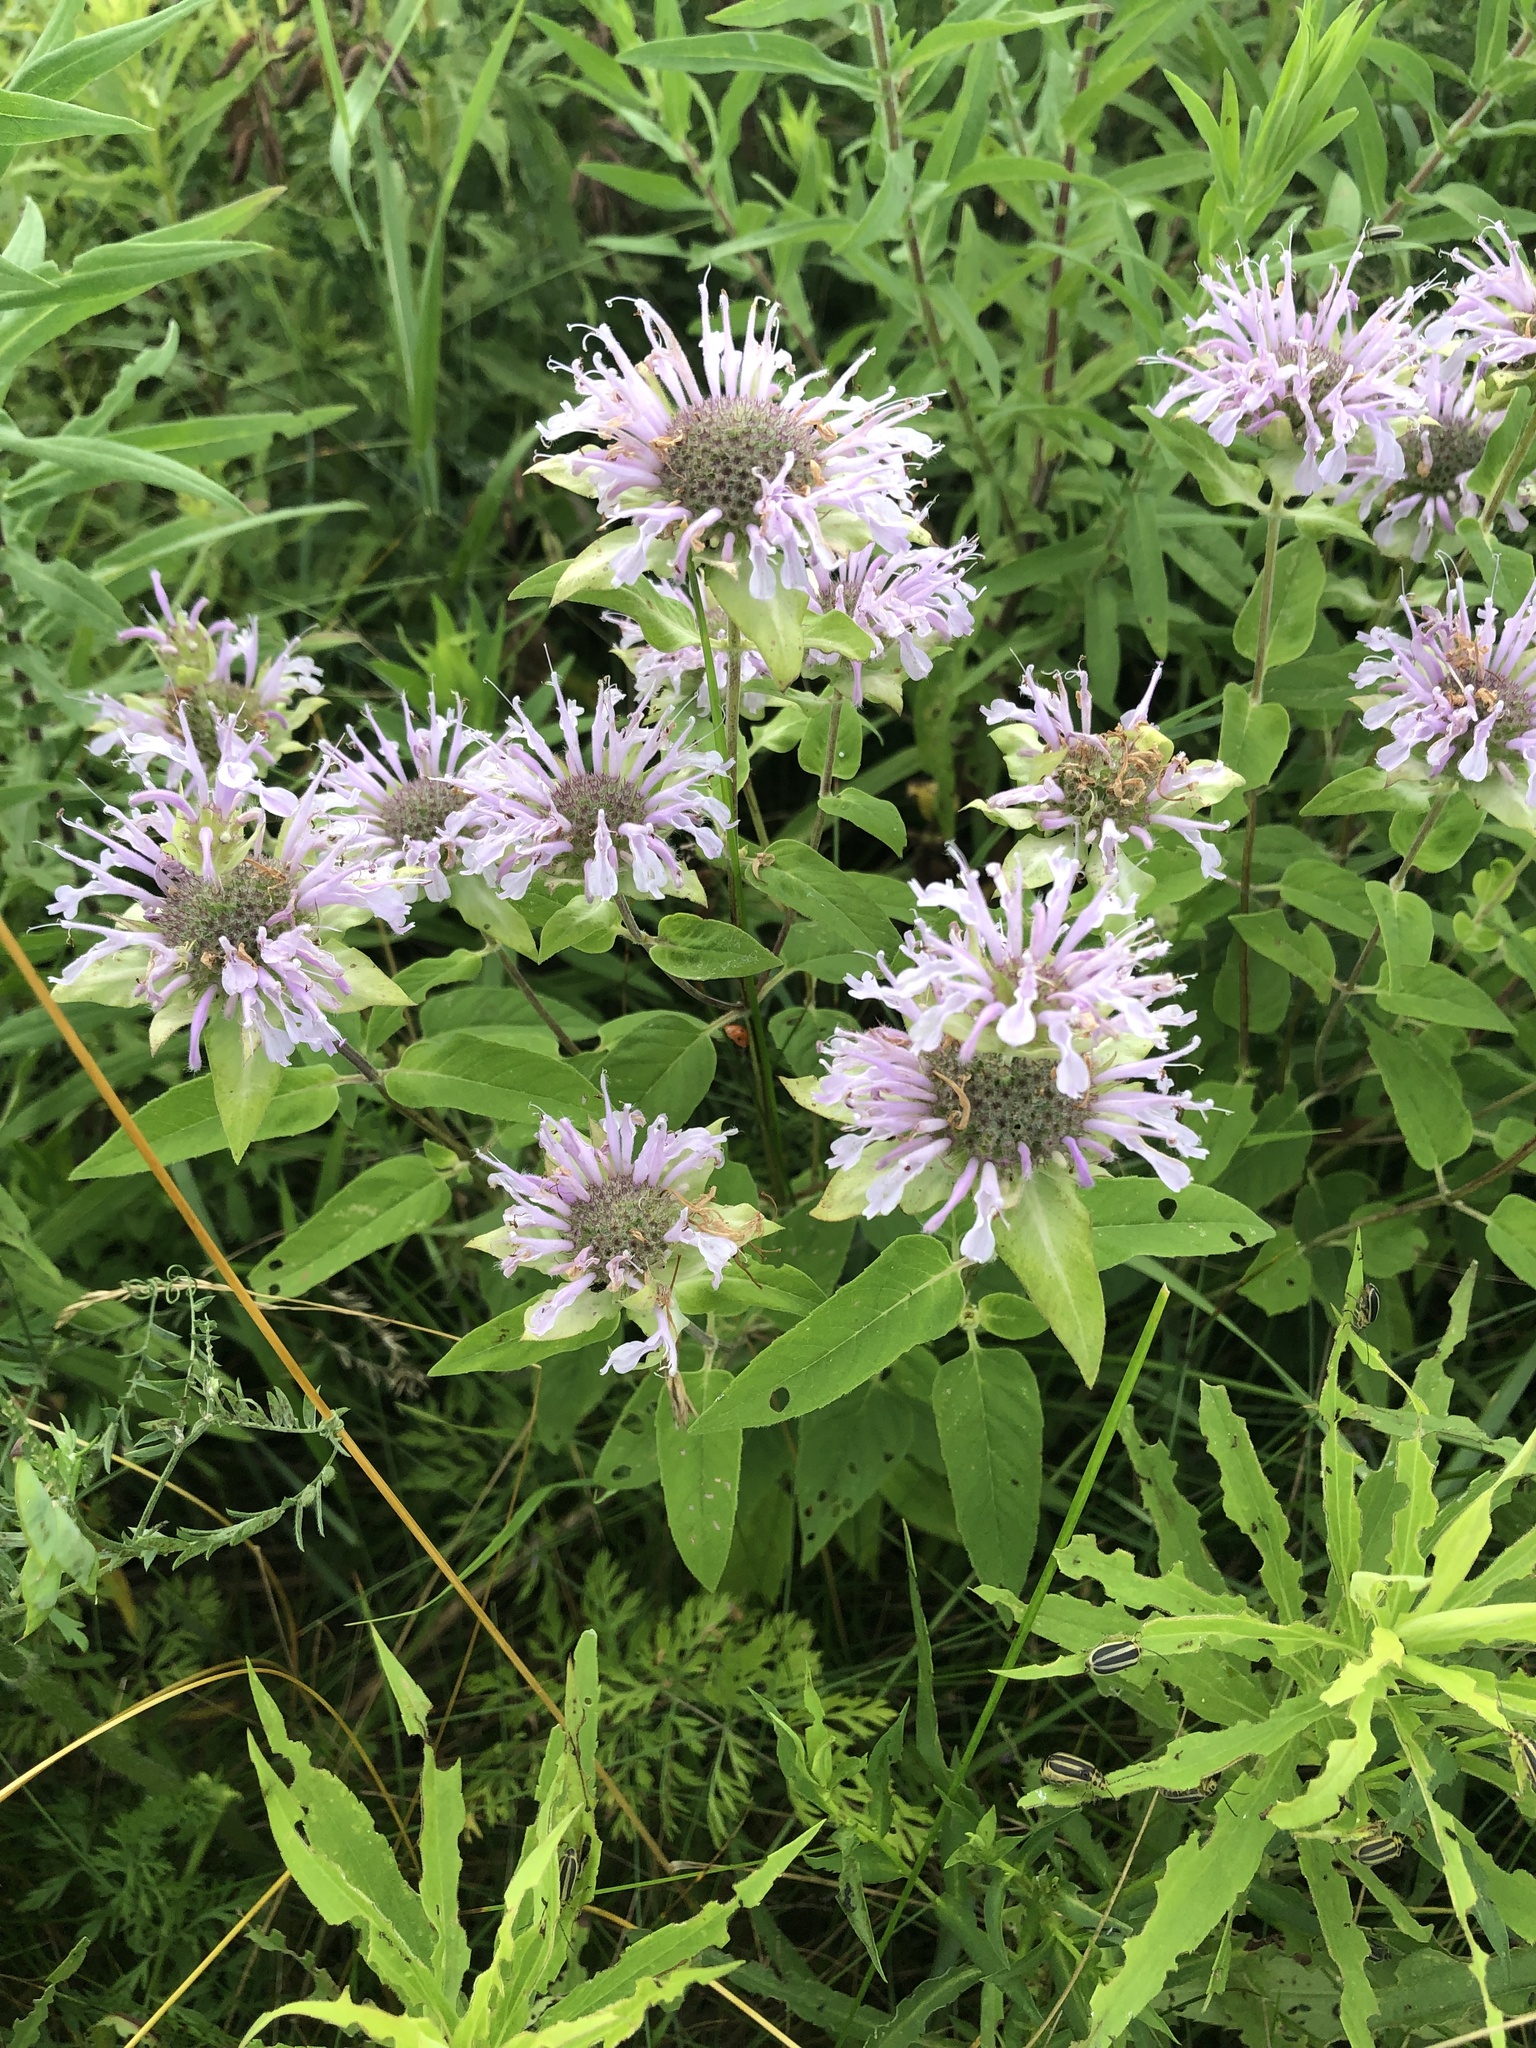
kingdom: Plantae
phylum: Tracheophyta
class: Magnoliopsida
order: Lamiales
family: Lamiaceae
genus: Monarda
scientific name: Monarda fistulosa
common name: Purple beebalm
